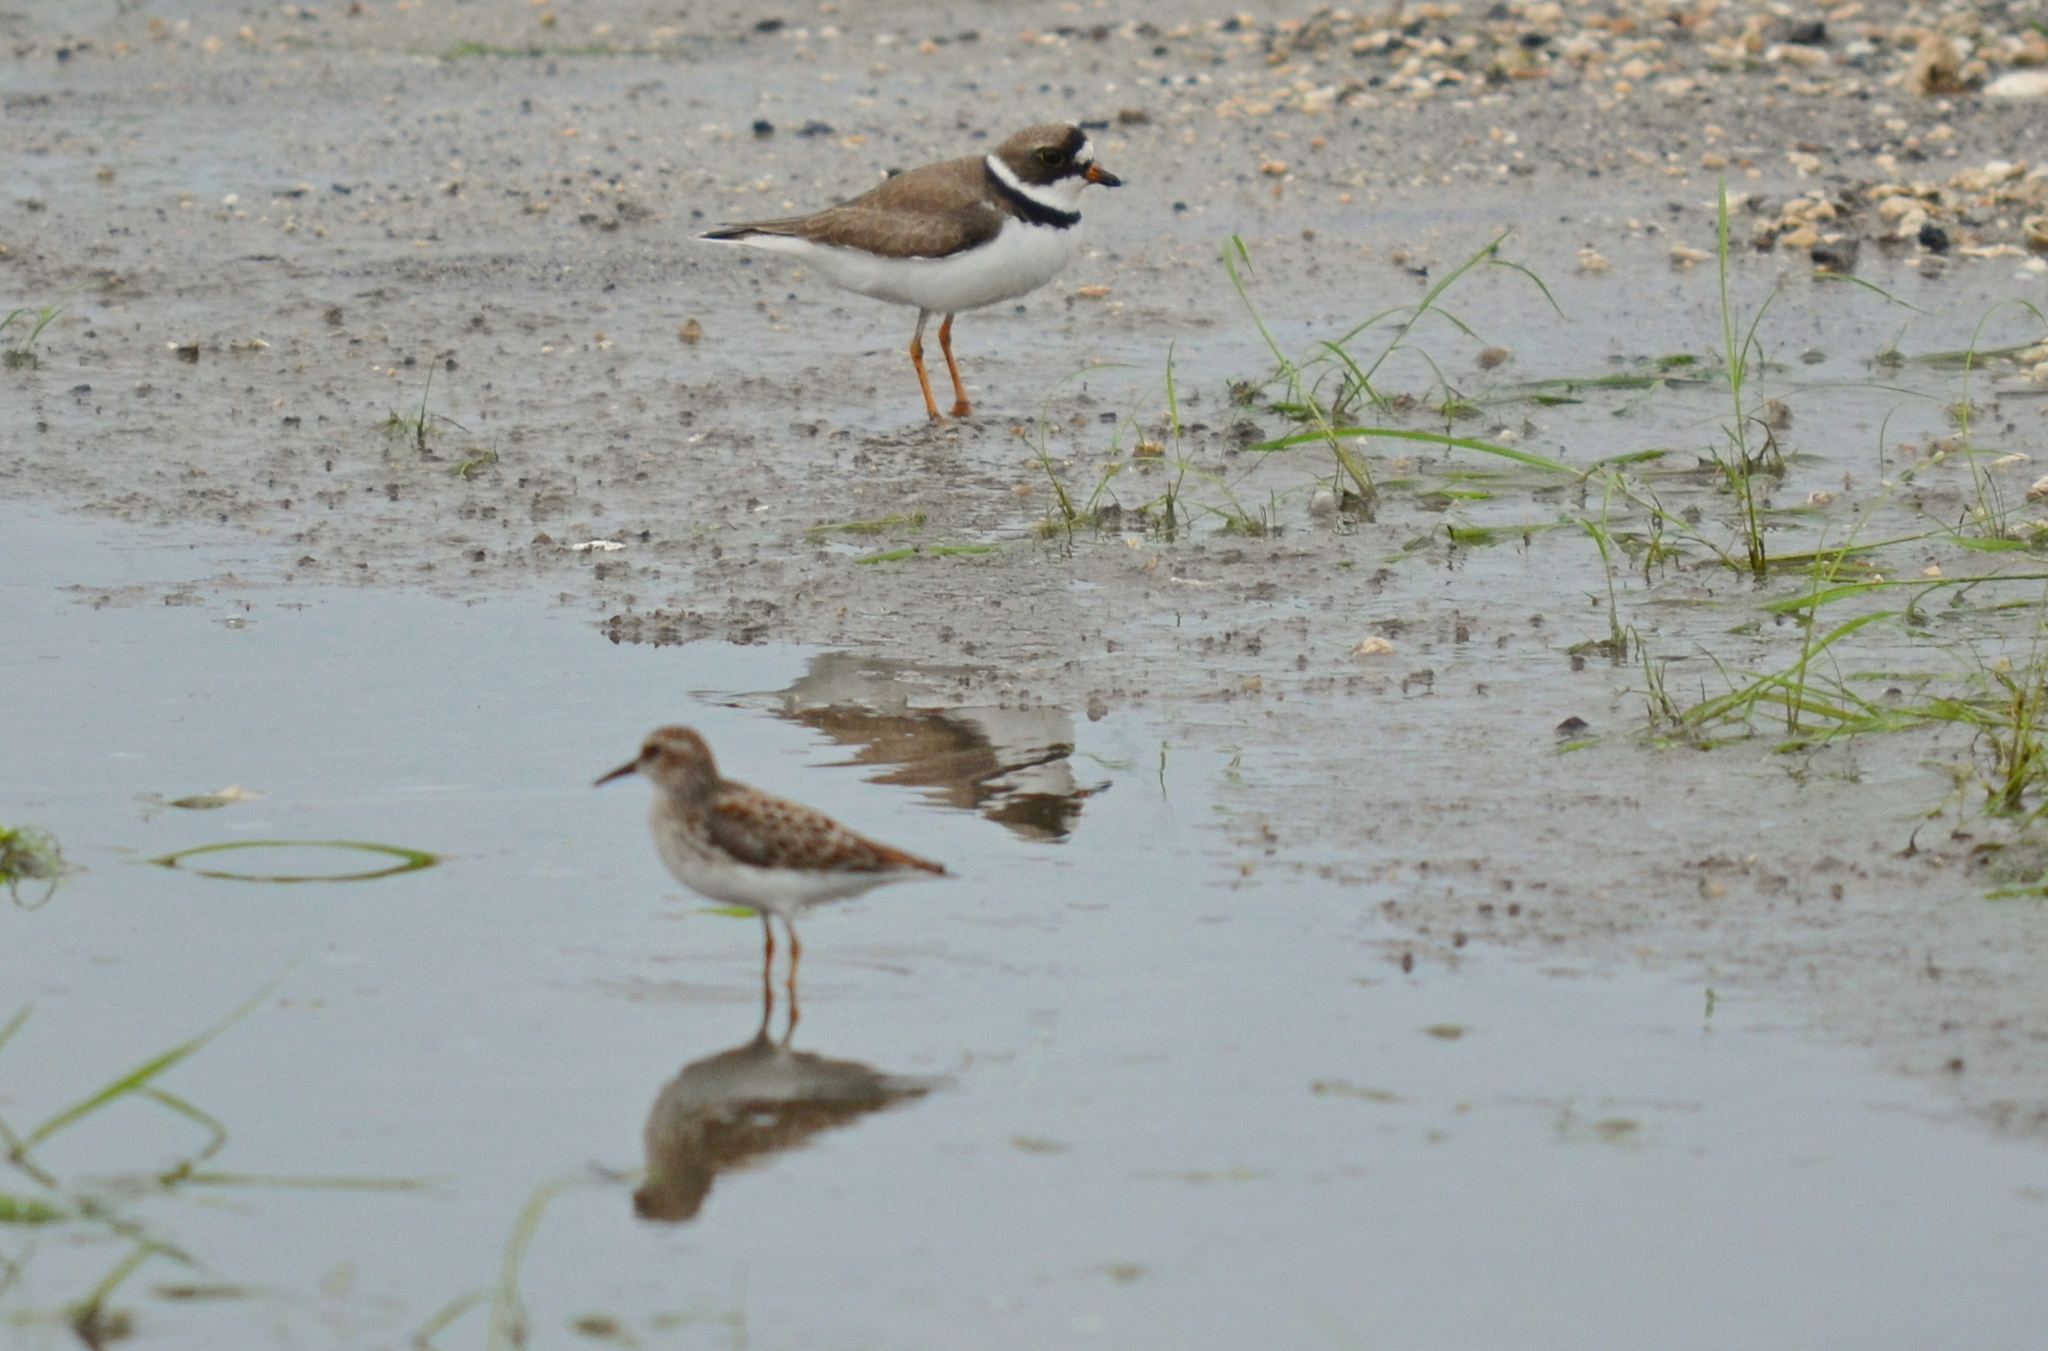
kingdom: Animalia
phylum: Chordata
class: Aves
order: Charadriiformes
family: Charadriidae
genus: Charadrius
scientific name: Charadrius semipalmatus
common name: Semipalmated plover
